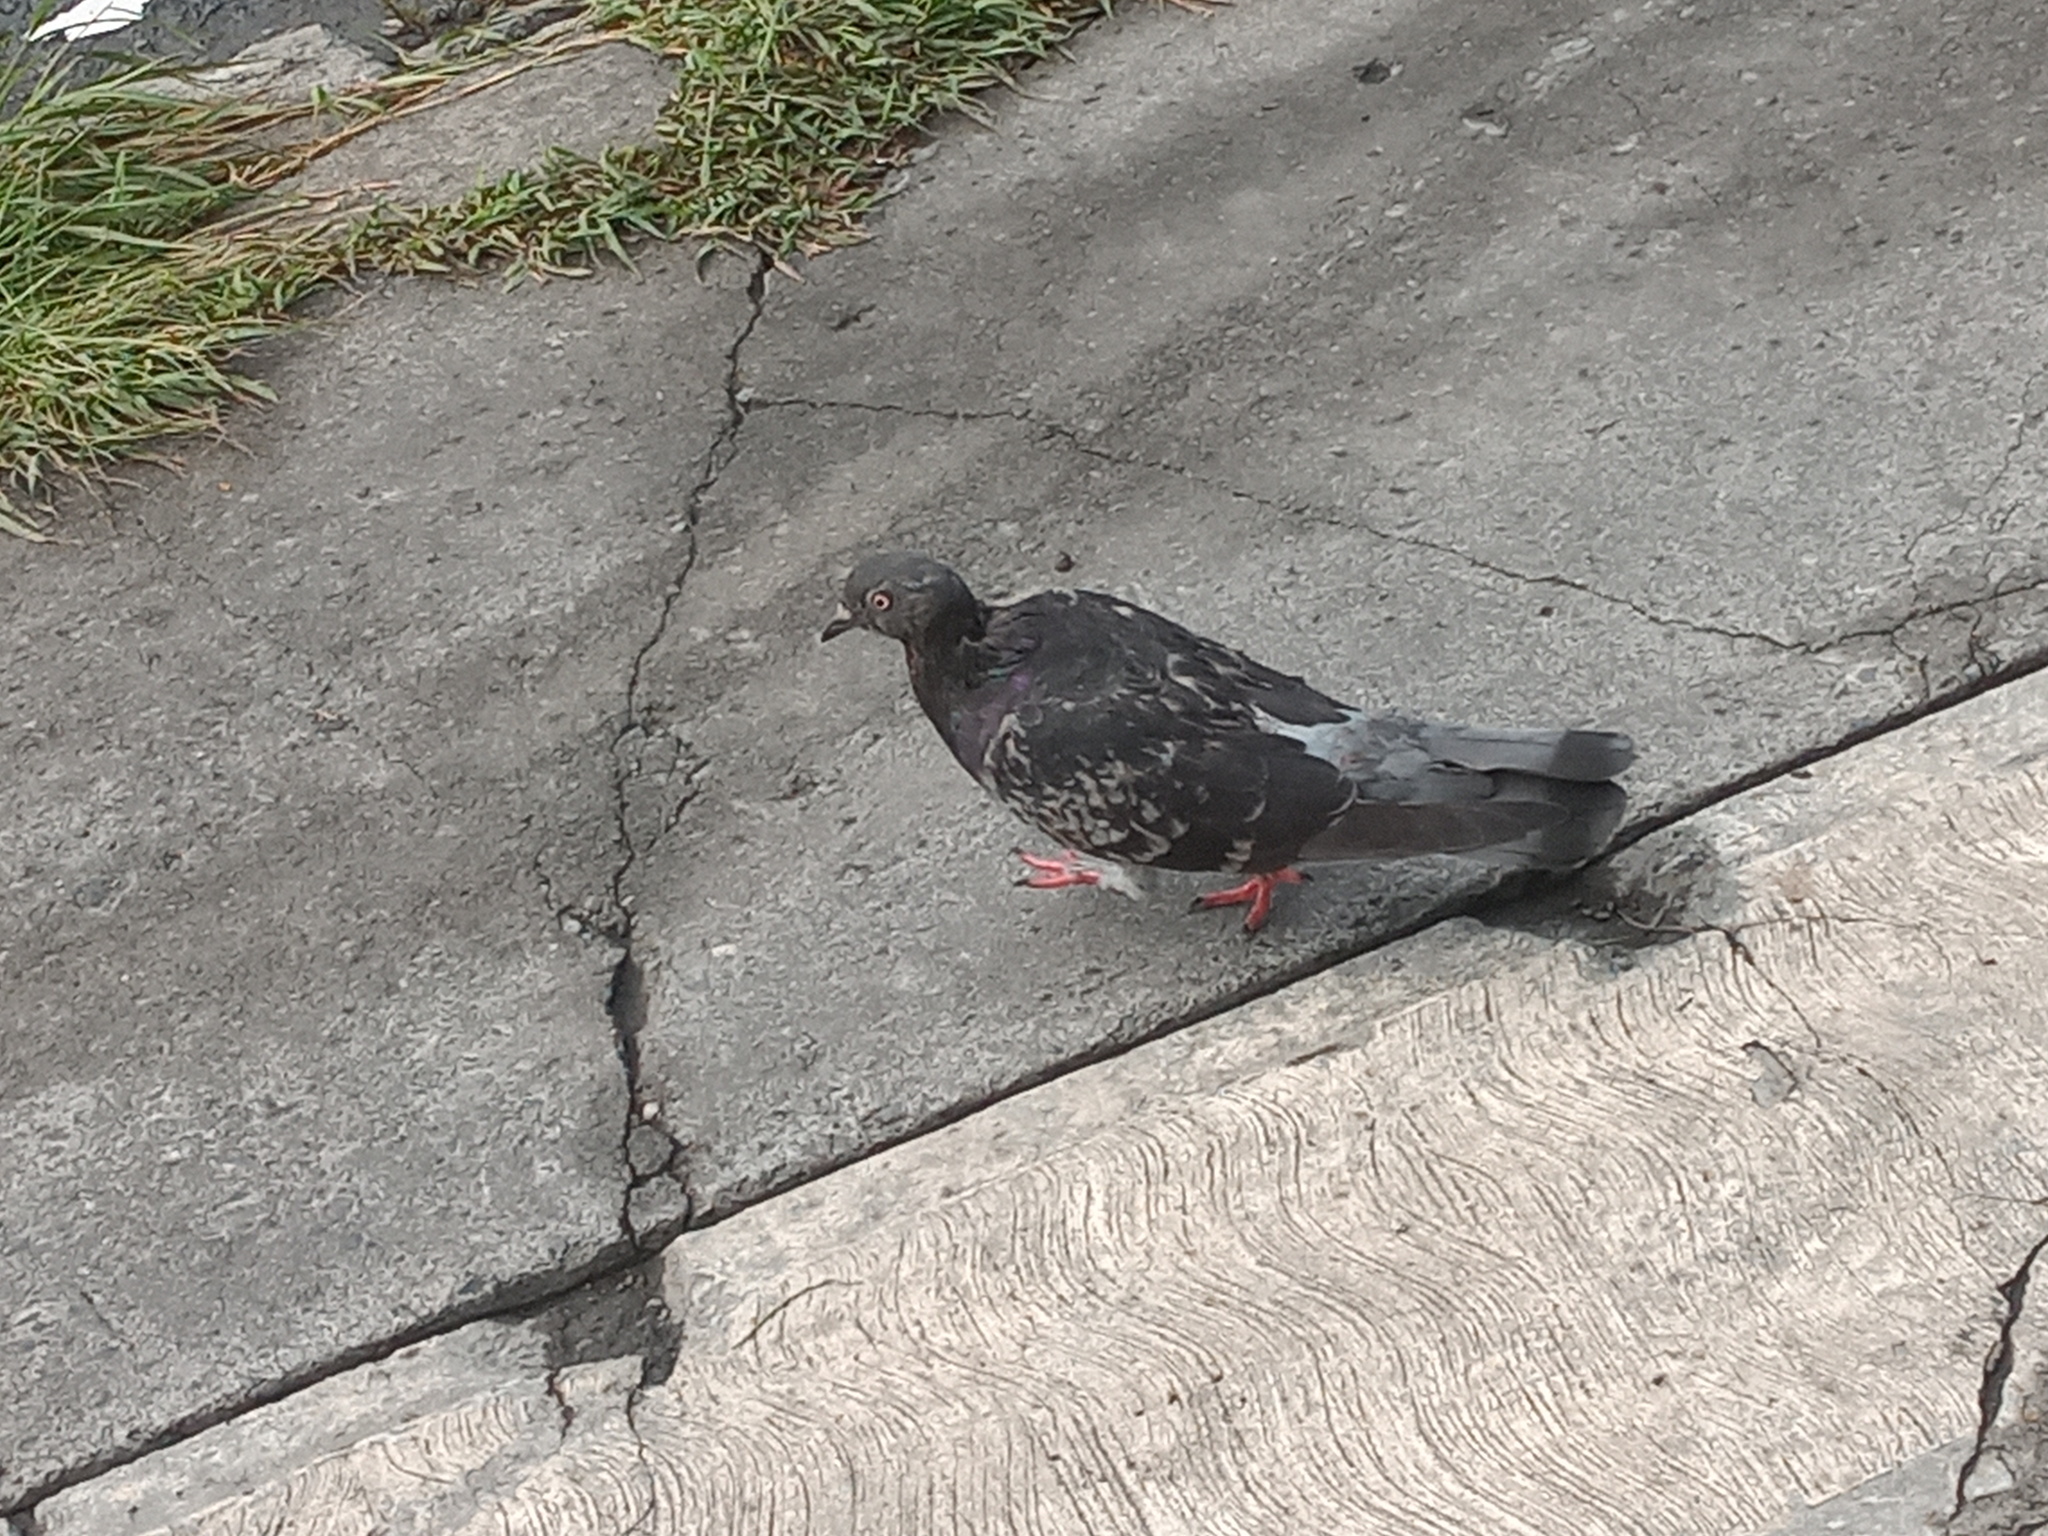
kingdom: Animalia
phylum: Chordata
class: Aves
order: Columbiformes
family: Columbidae
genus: Columba
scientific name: Columba livia
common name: Rock pigeon
